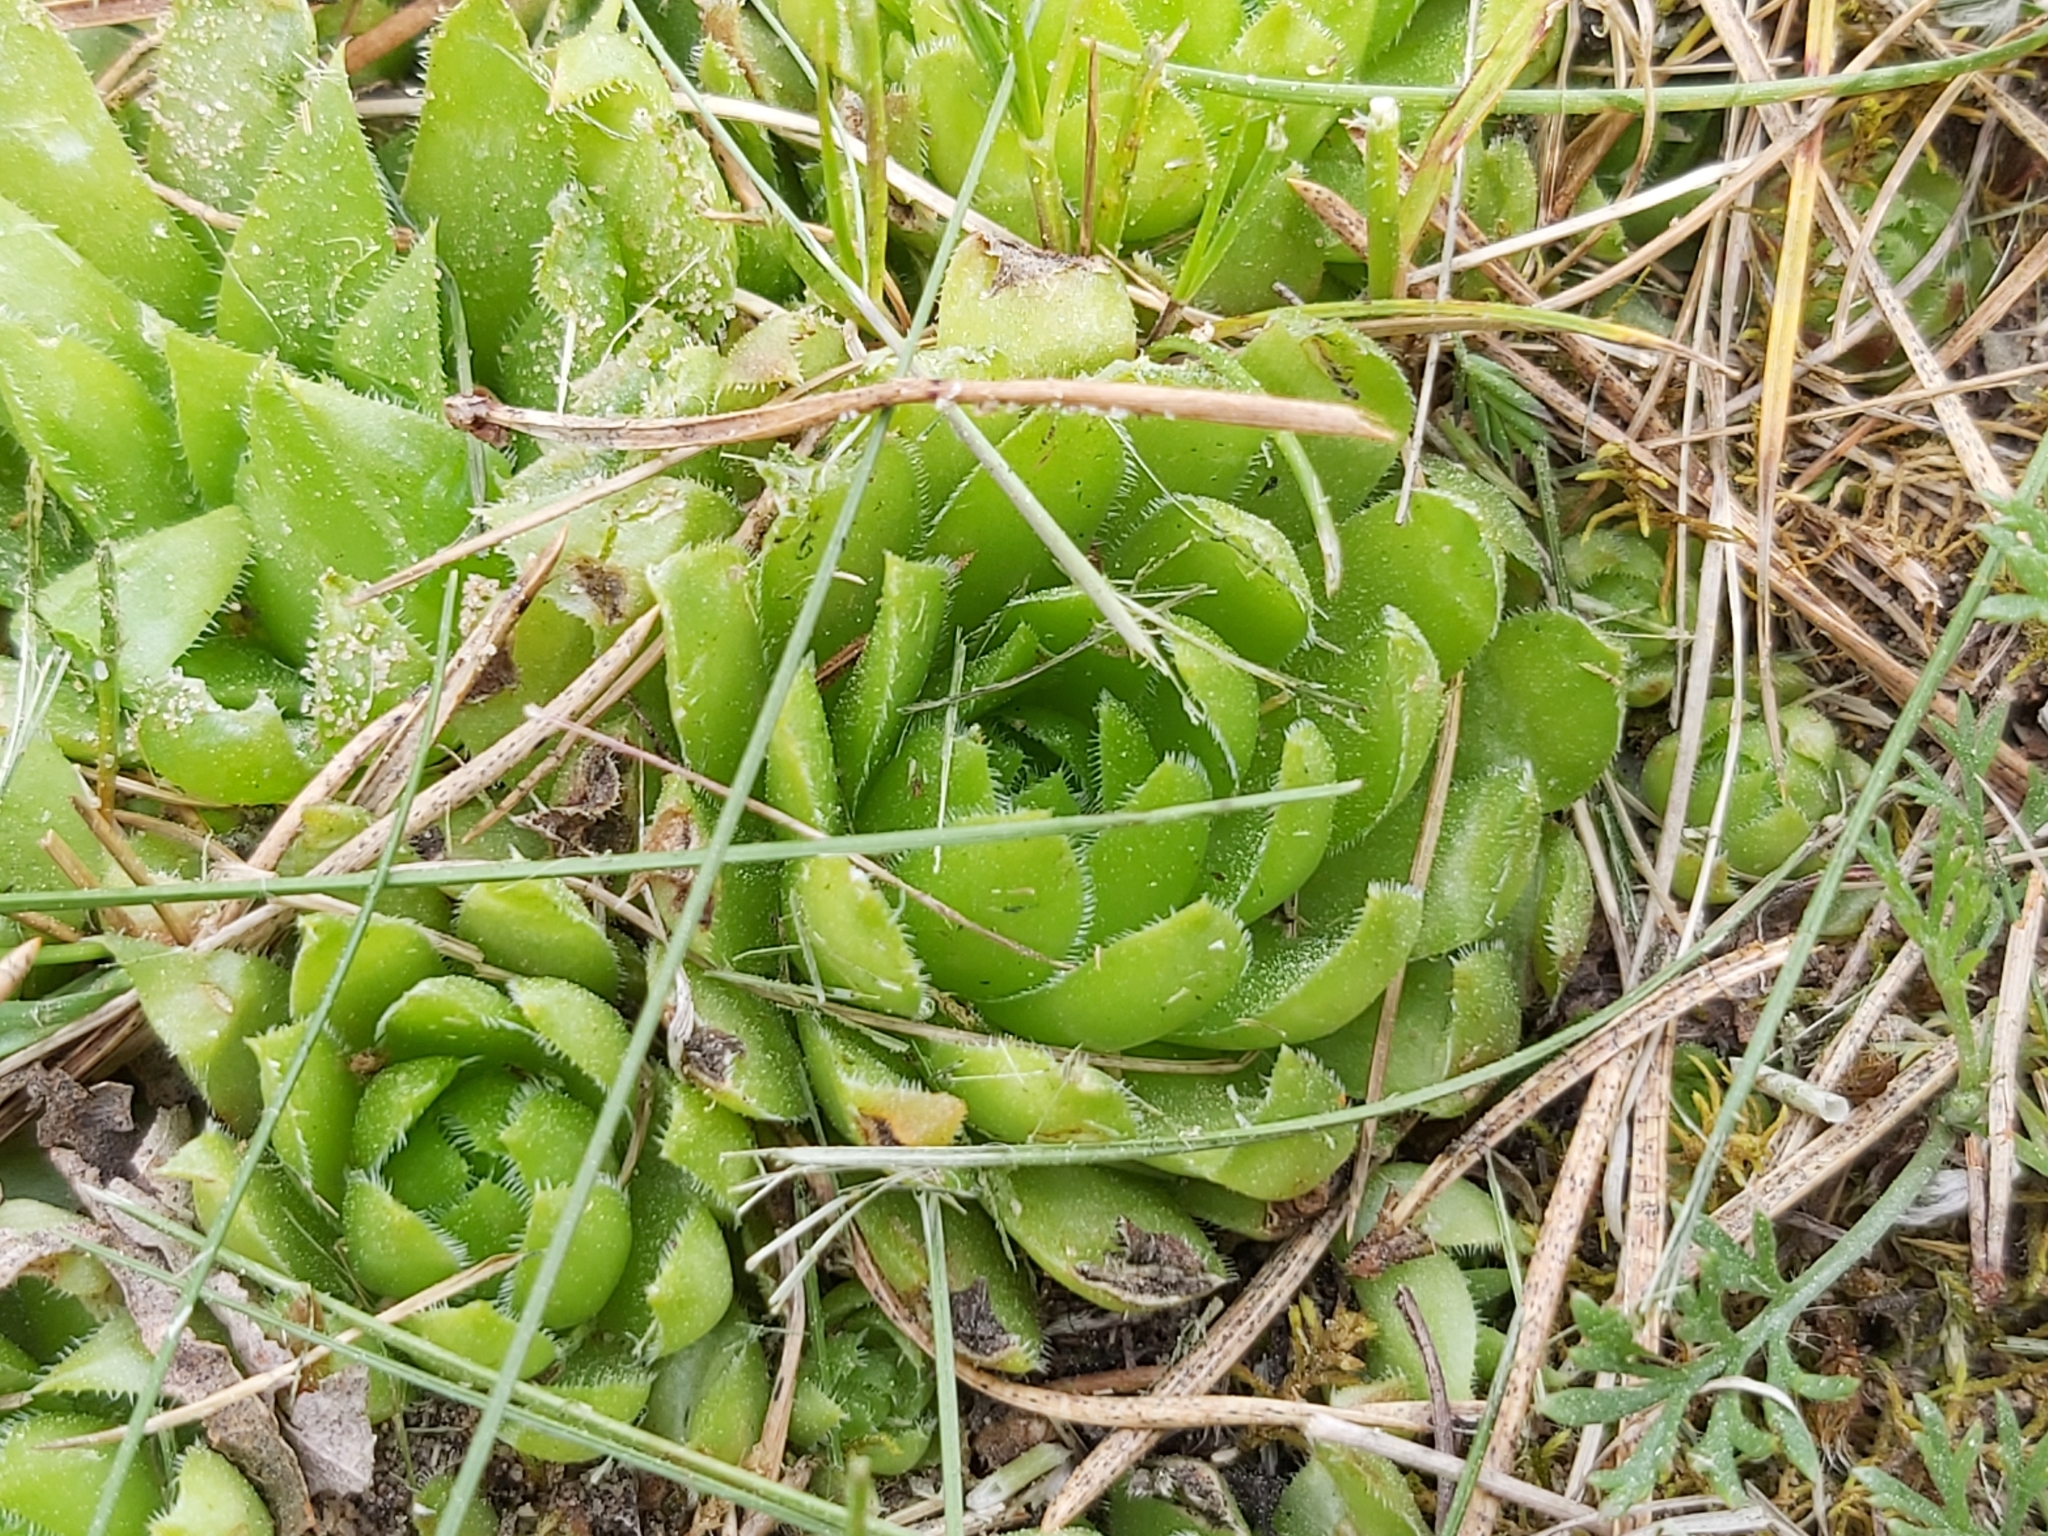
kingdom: Plantae
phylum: Tracheophyta
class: Magnoliopsida
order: Saxifragales
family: Crassulaceae
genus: Sempervivum
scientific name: Sempervivum globiferum
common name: Rolling hen-and-chicks
